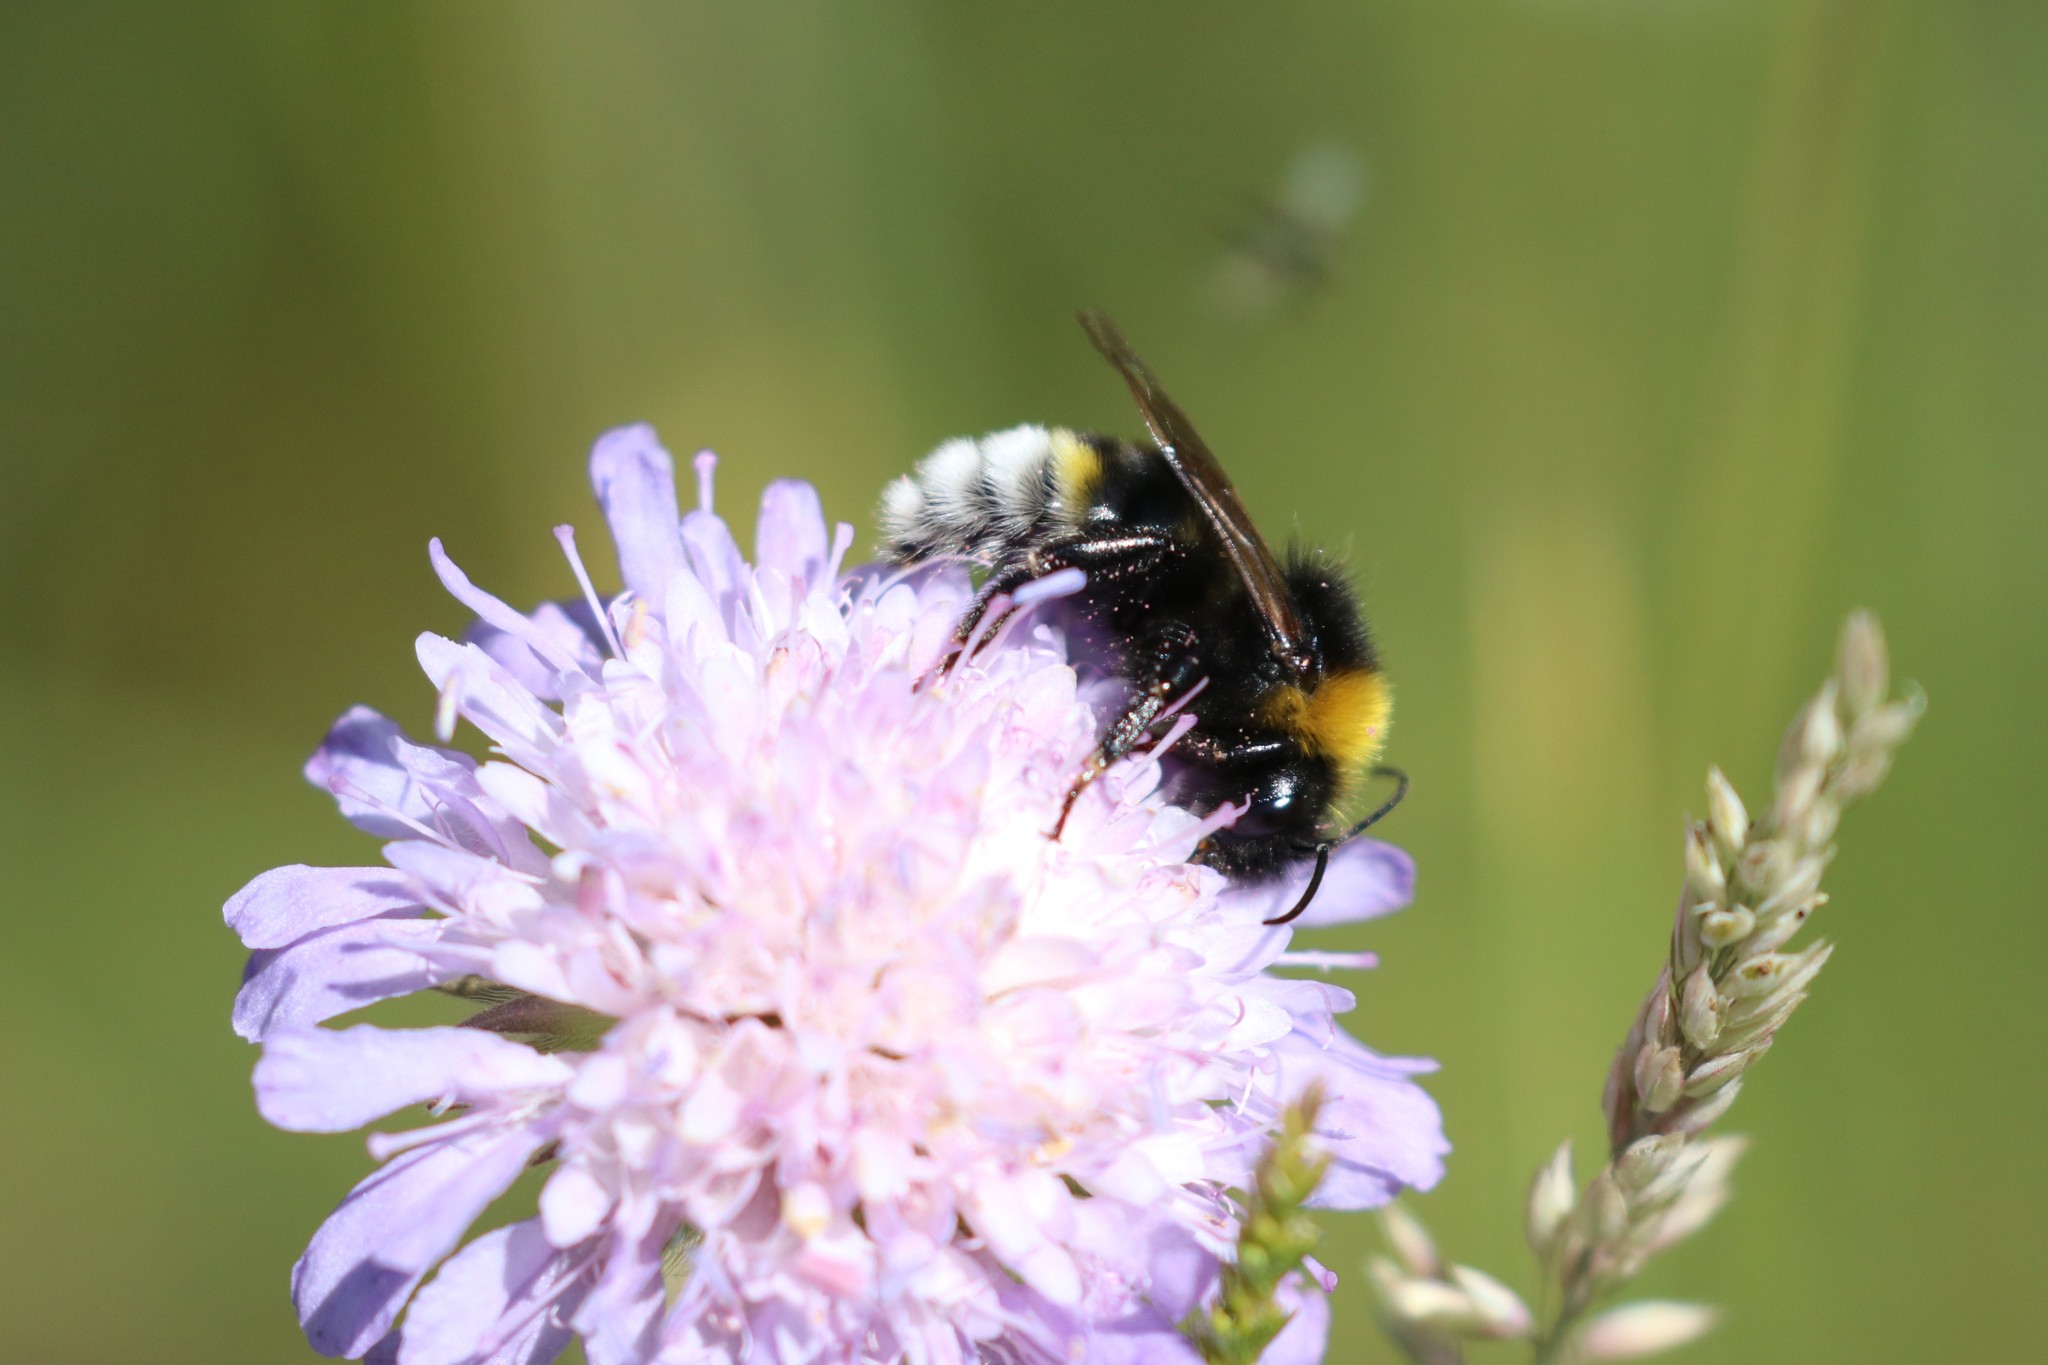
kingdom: Animalia
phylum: Arthropoda
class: Insecta
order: Hymenoptera
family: Apidae
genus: Bombus
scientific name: Bombus vestalis
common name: Vestal cuckoo bee
